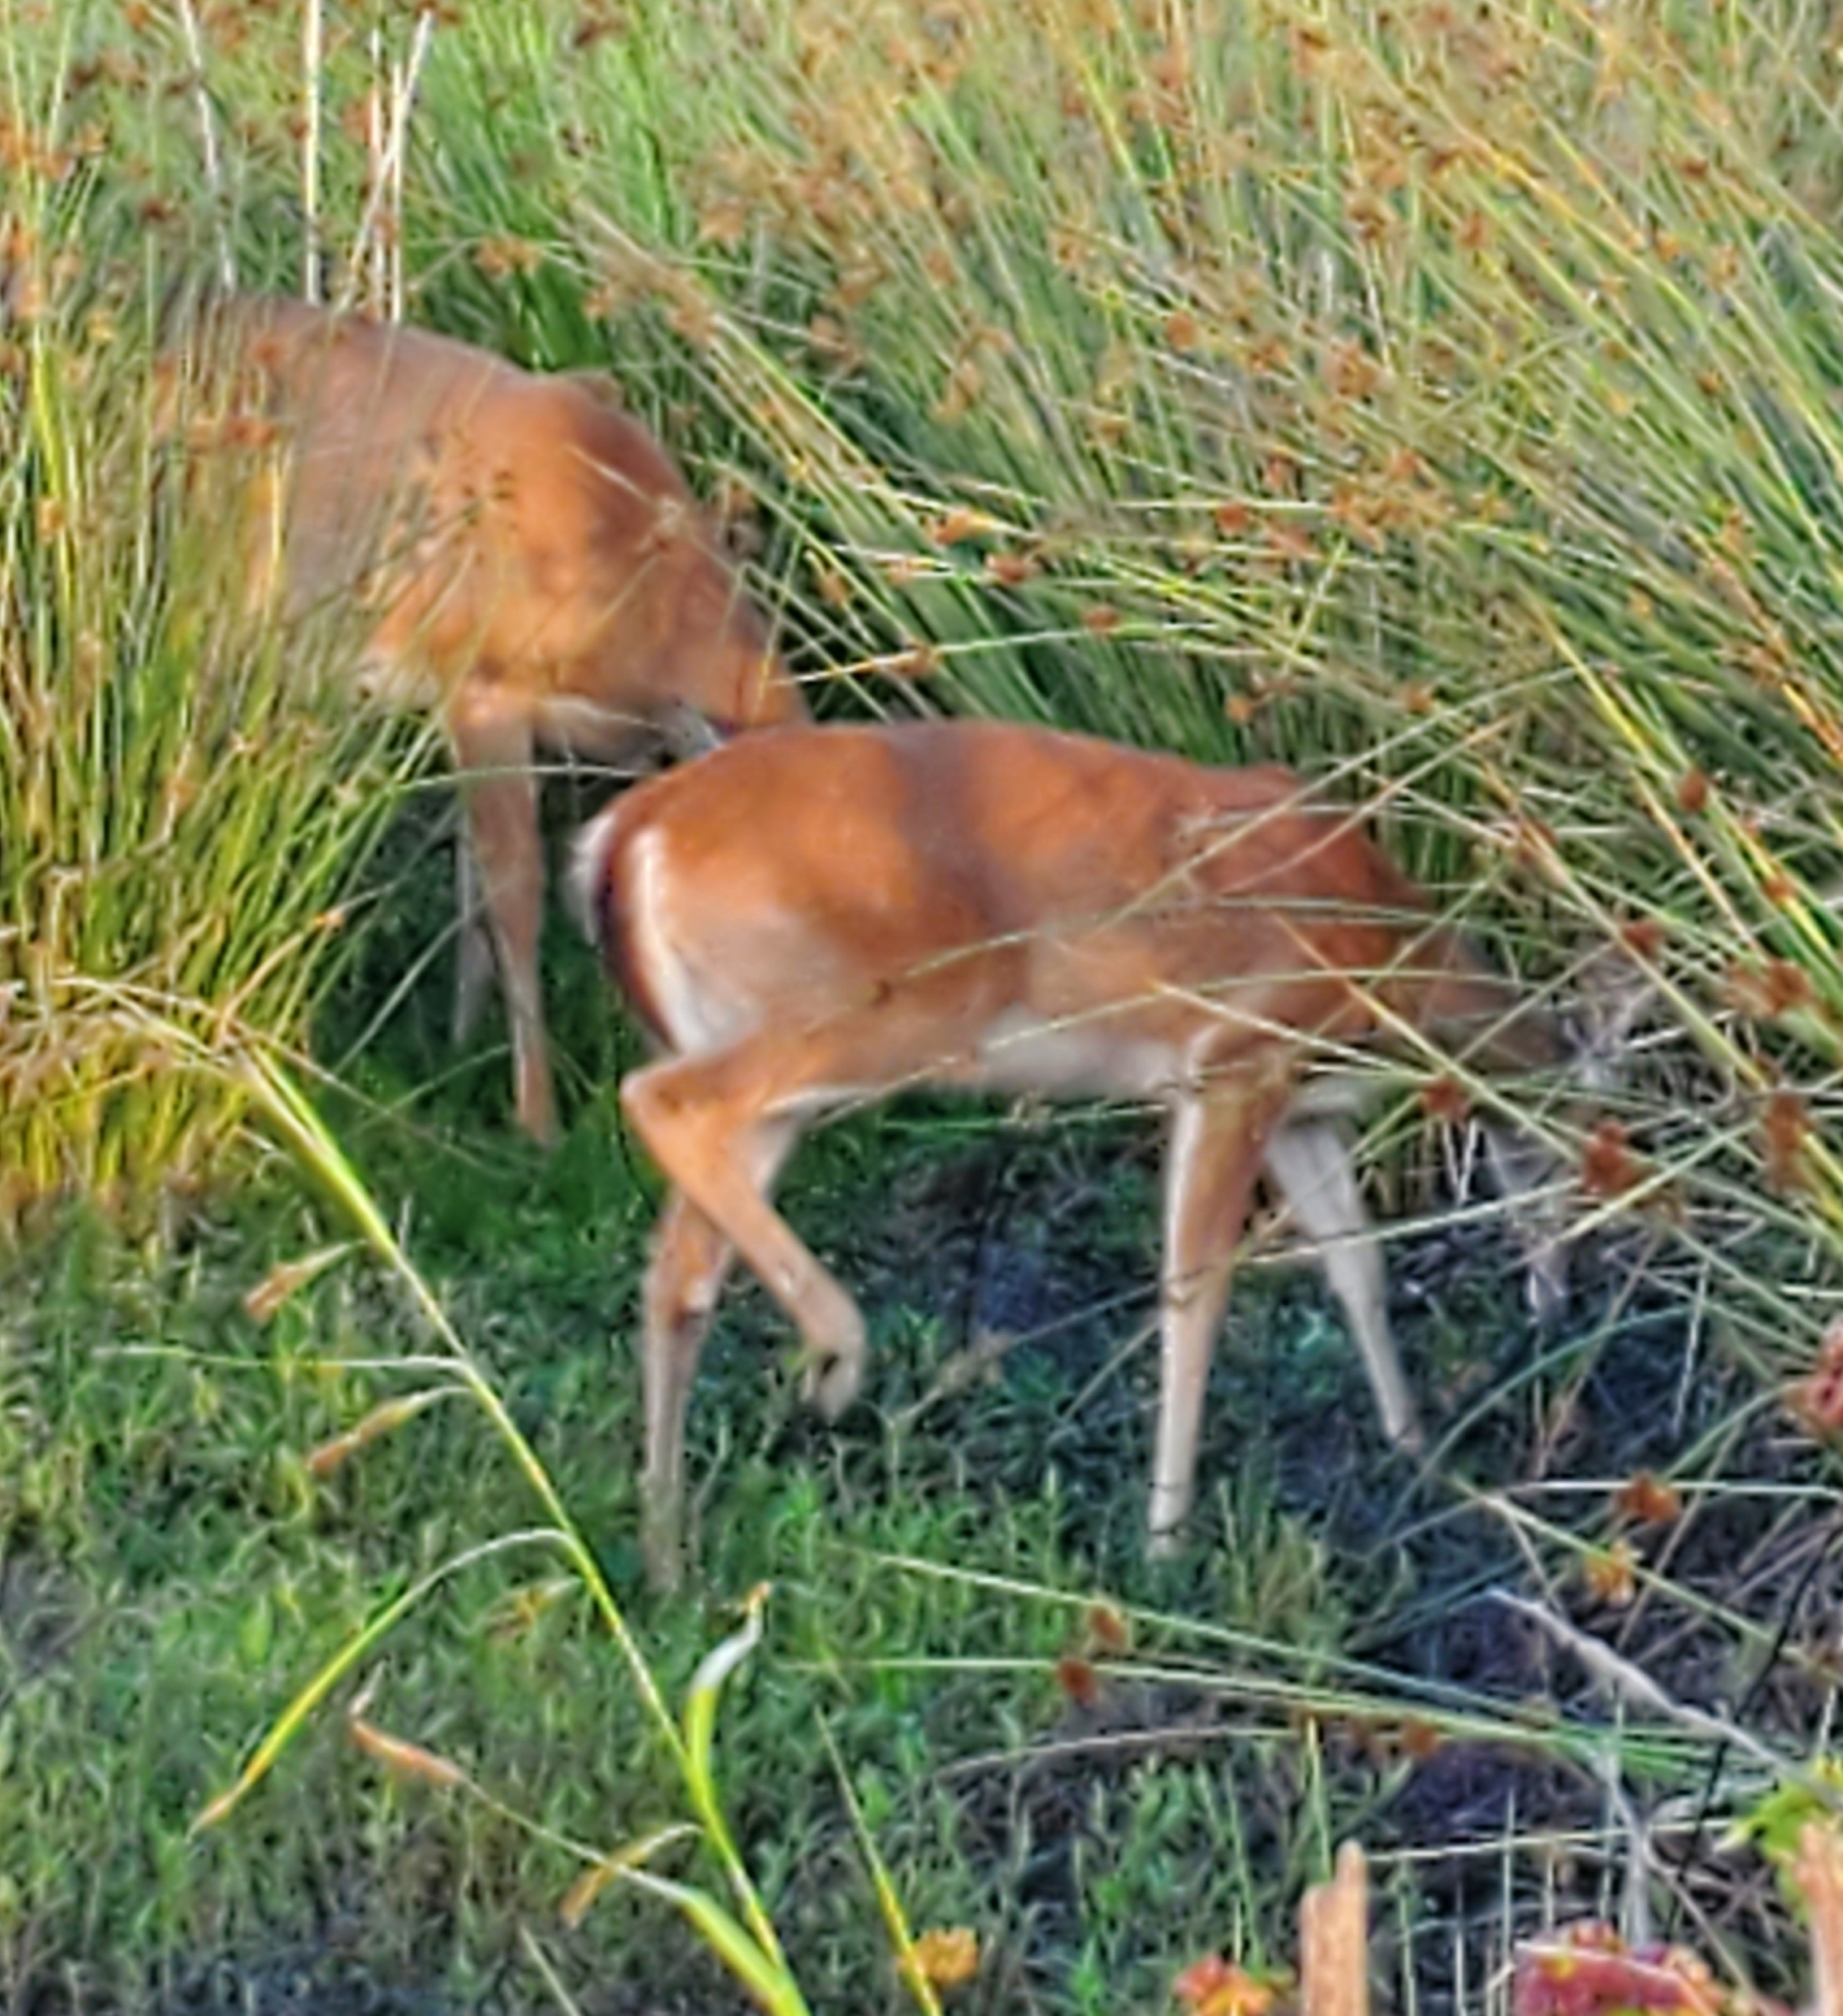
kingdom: Animalia
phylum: Chordata
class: Mammalia
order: Artiodactyla
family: Cervidae
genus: Odocoileus
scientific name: Odocoileus virginianus
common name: White-tailed deer
